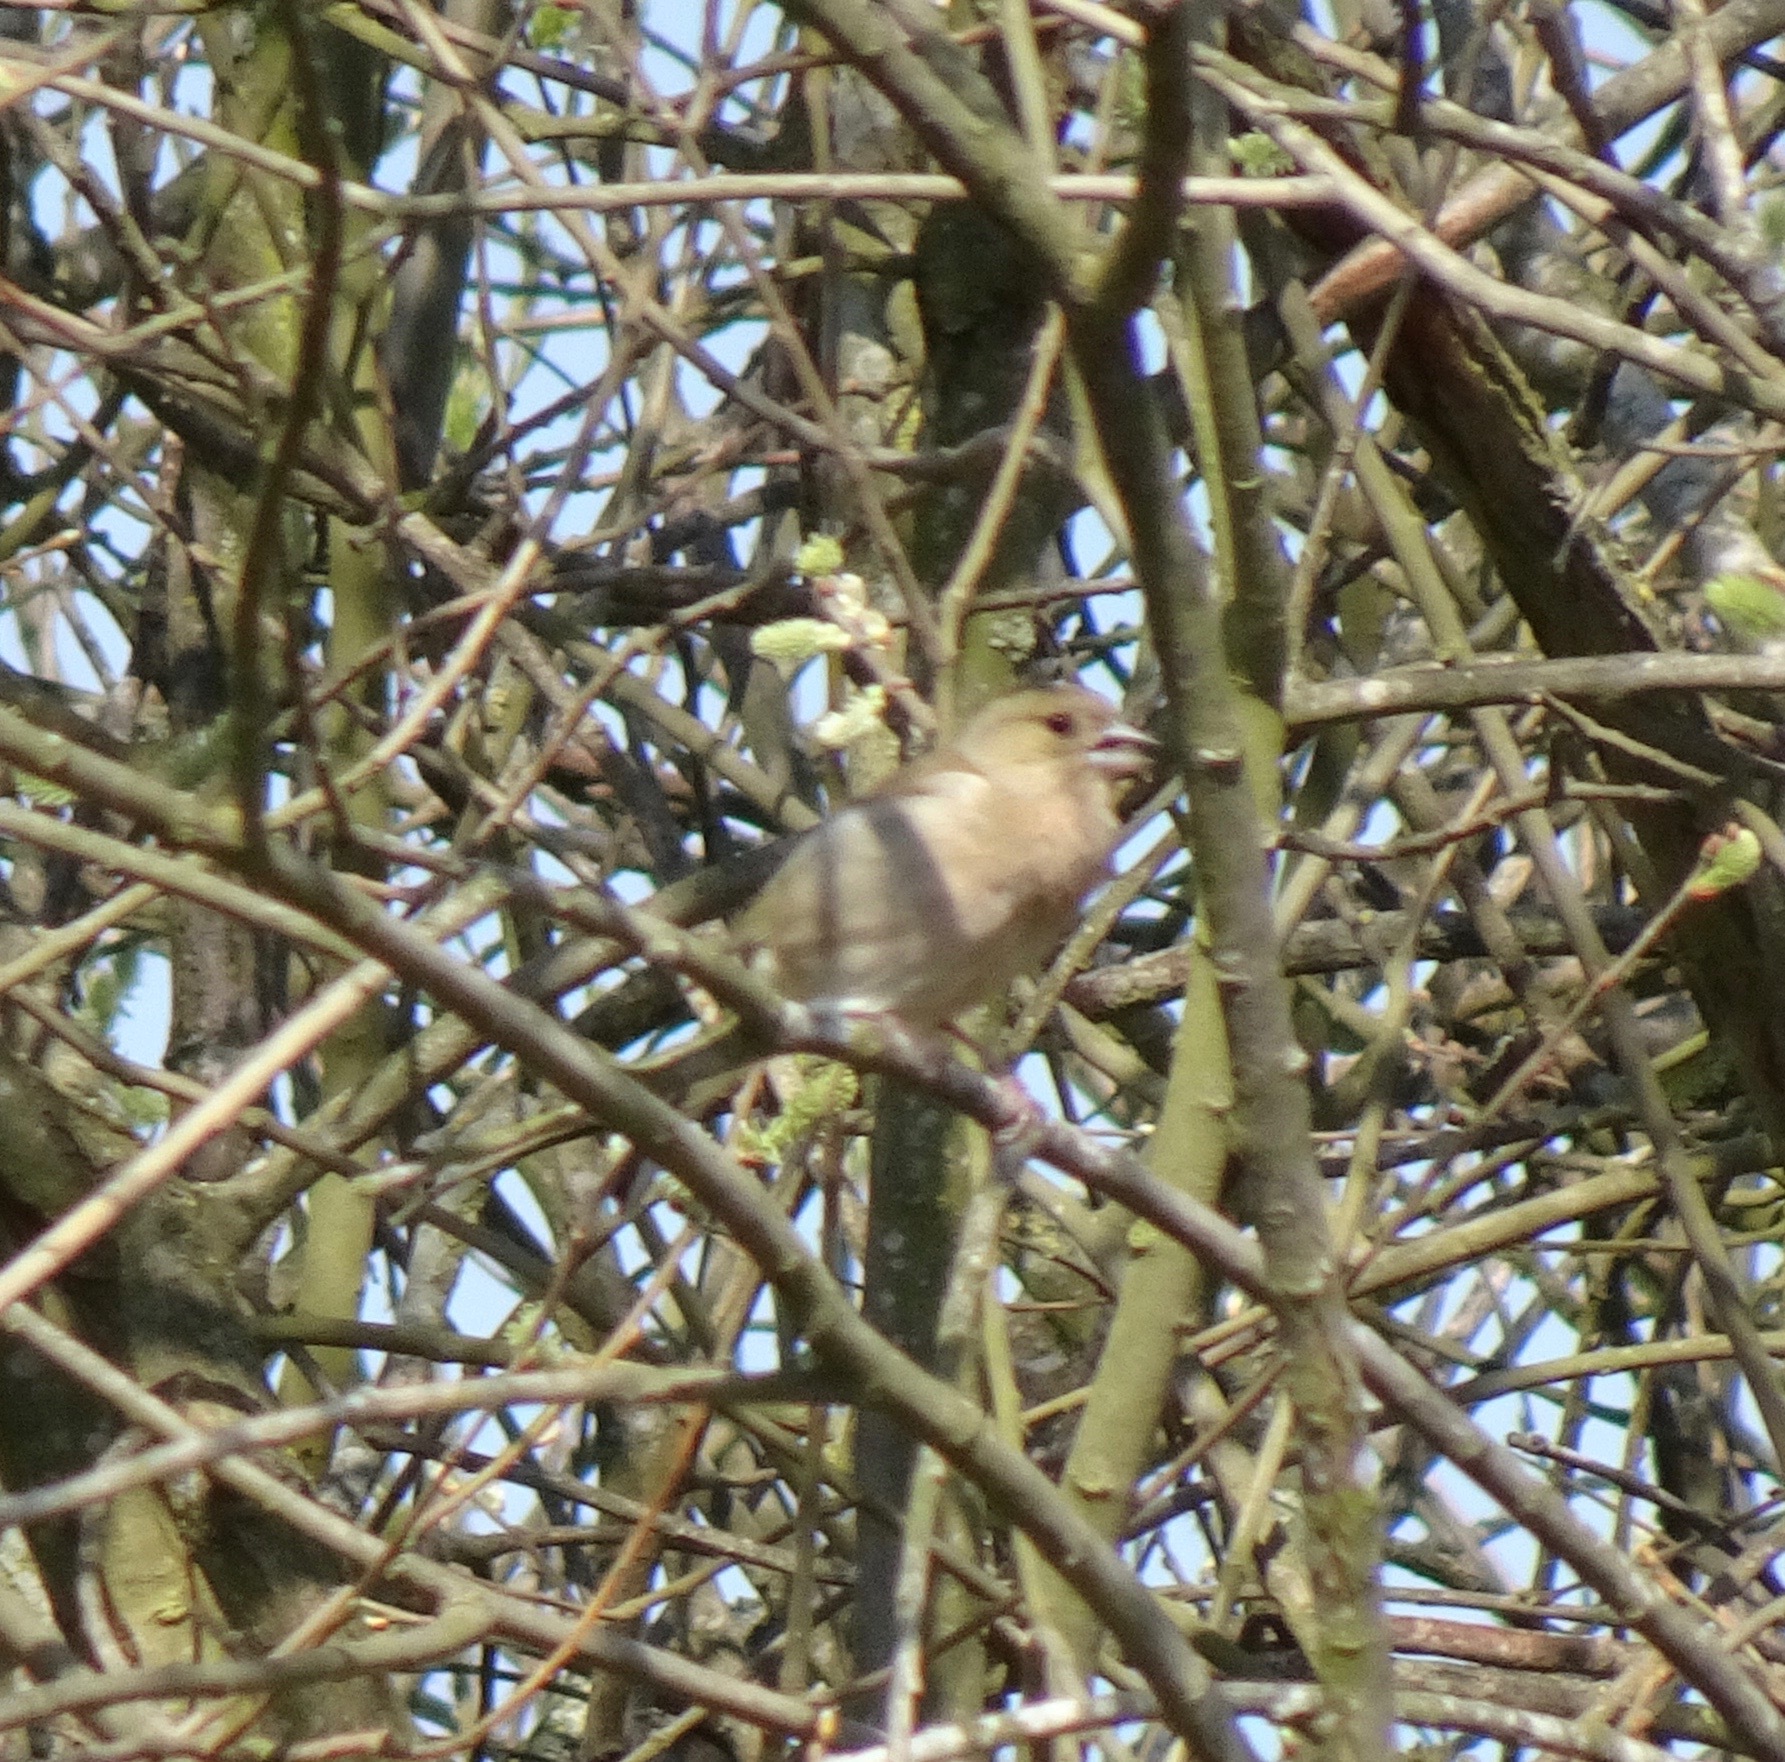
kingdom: Animalia
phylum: Chordata
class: Aves
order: Passeriformes
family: Fringillidae
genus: Fringilla
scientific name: Fringilla coelebs
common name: Common chaffinch
